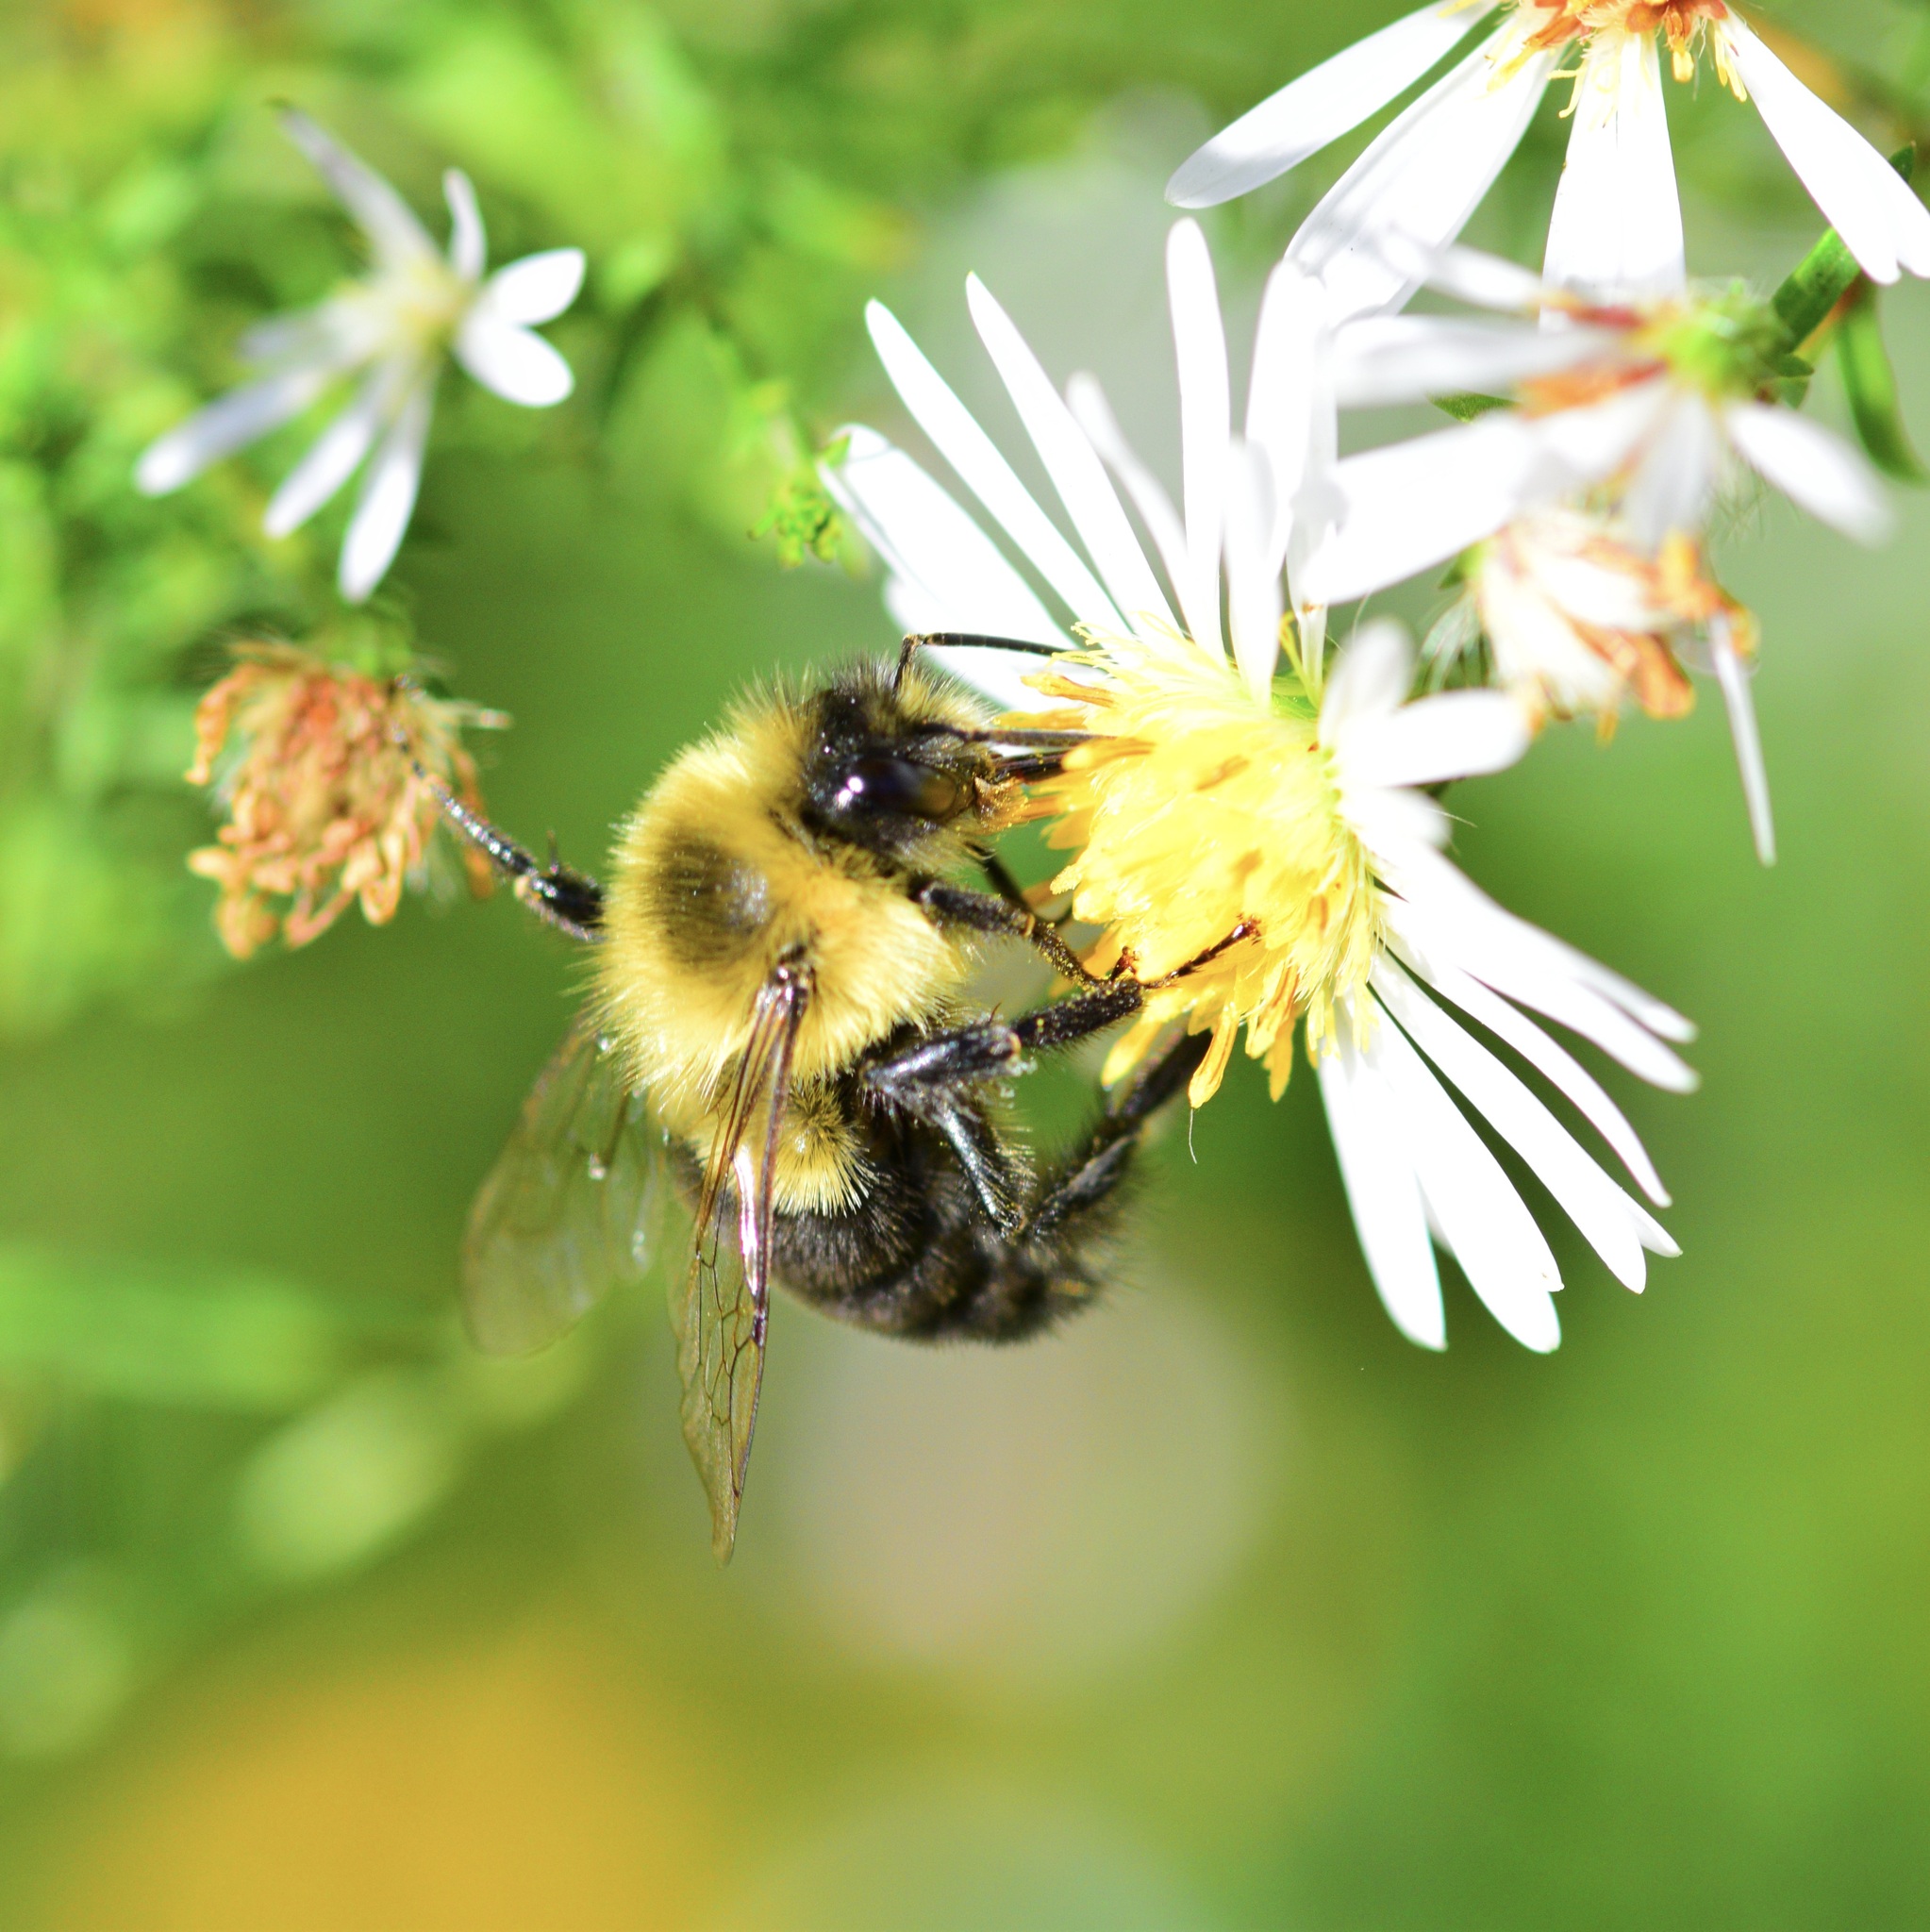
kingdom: Animalia
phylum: Arthropoda
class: Insecta
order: Hymenoptera
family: Apidae
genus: Bombus
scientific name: Bombus impatiens
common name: Common eastern bumble bee
